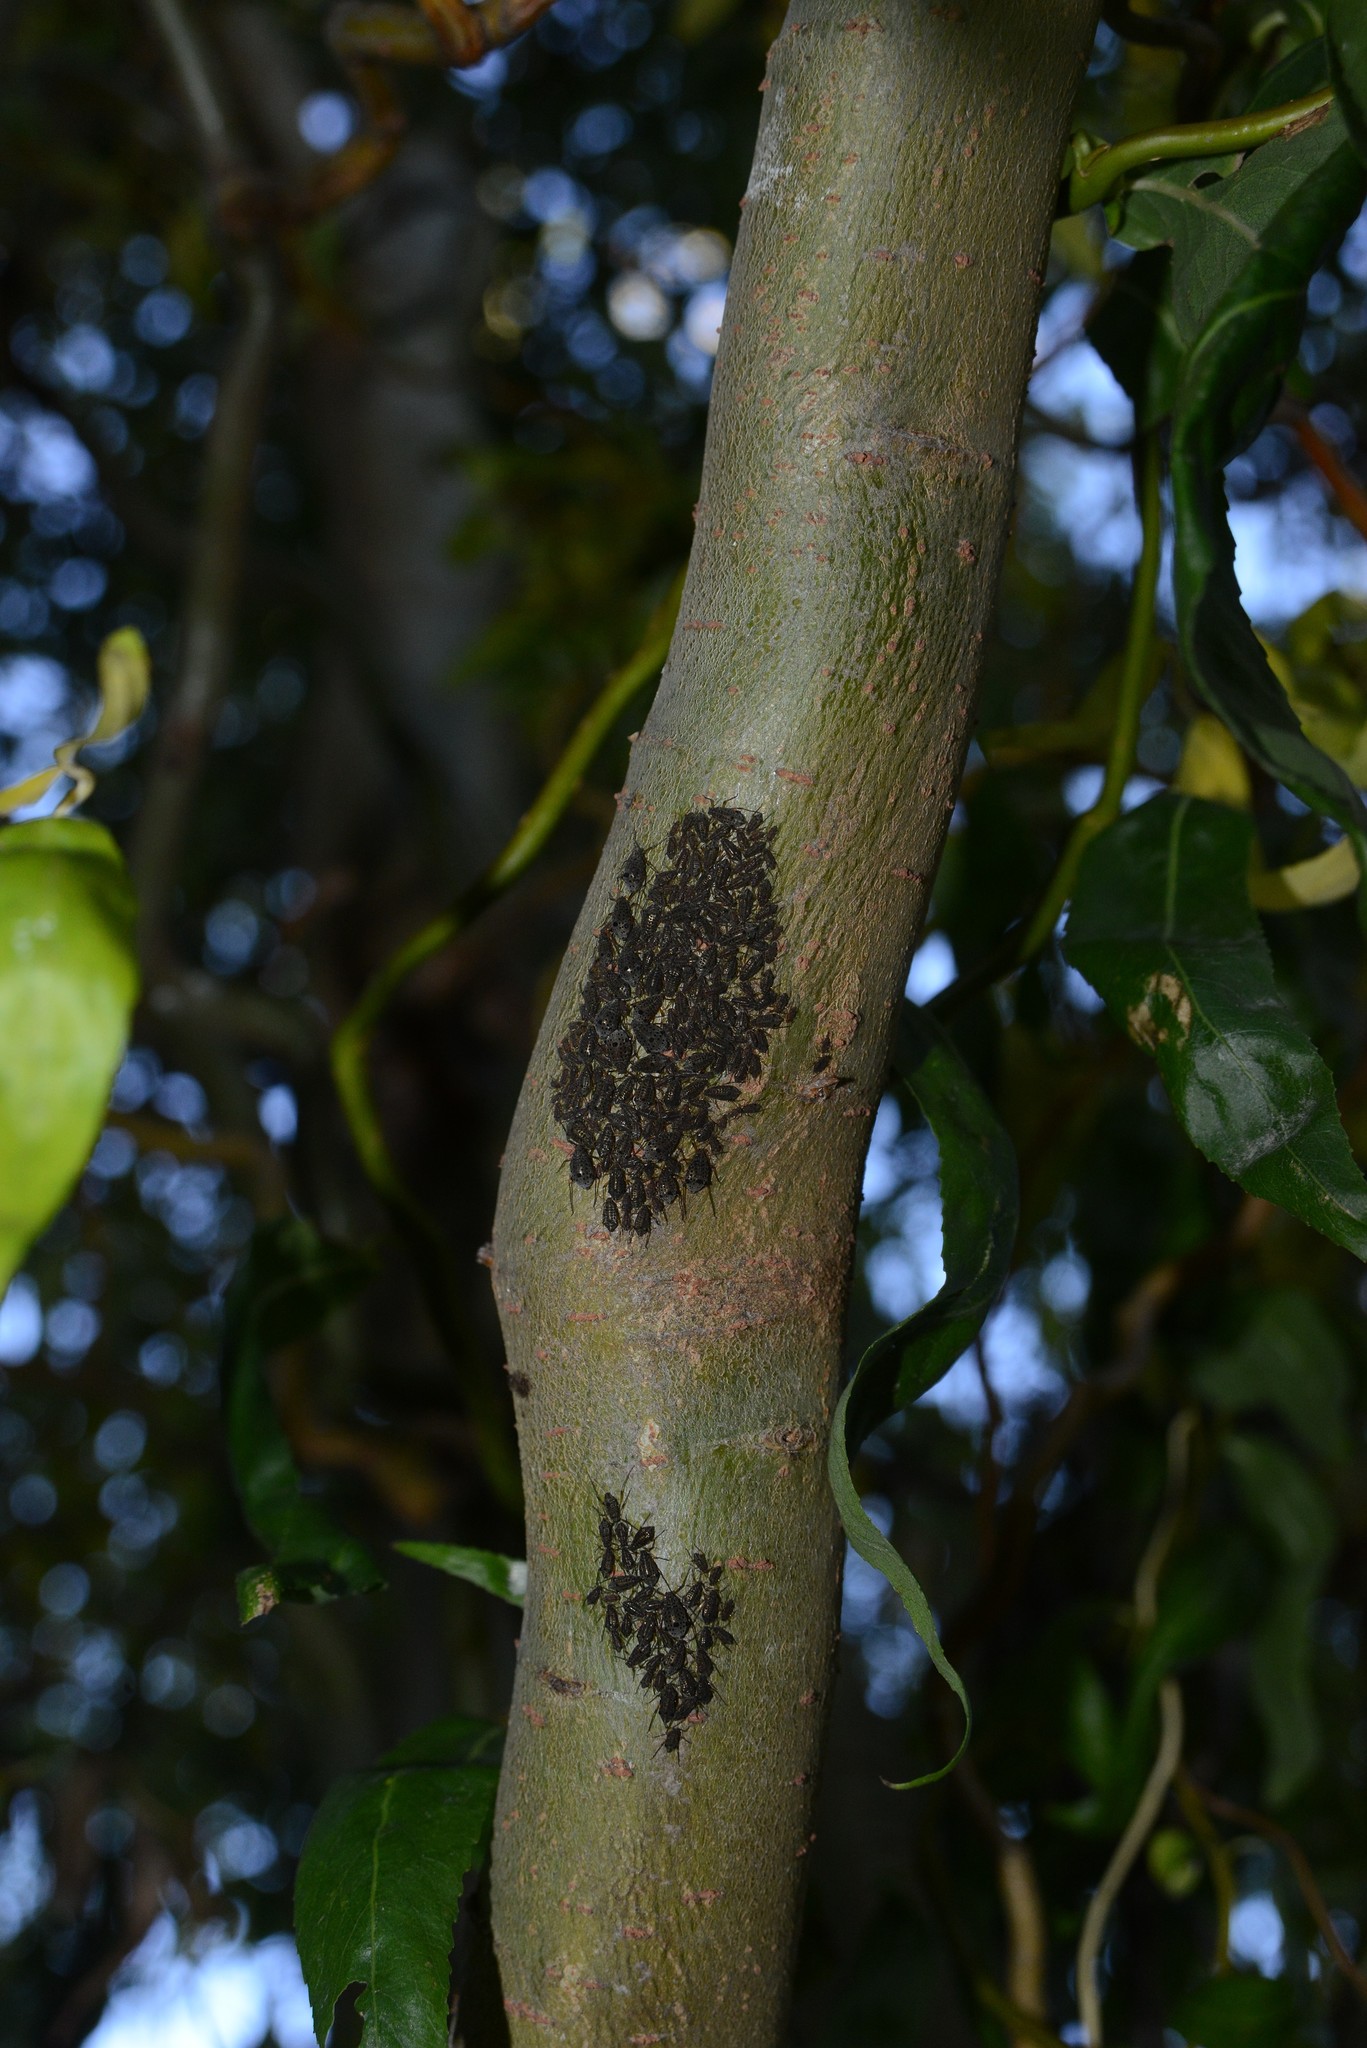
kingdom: Animalia
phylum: Arthropoda
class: Insecta
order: Hemiptera
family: Aphididae
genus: Tuberolachnus
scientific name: Tuberolachnus salignus
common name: Giant willow aphid
